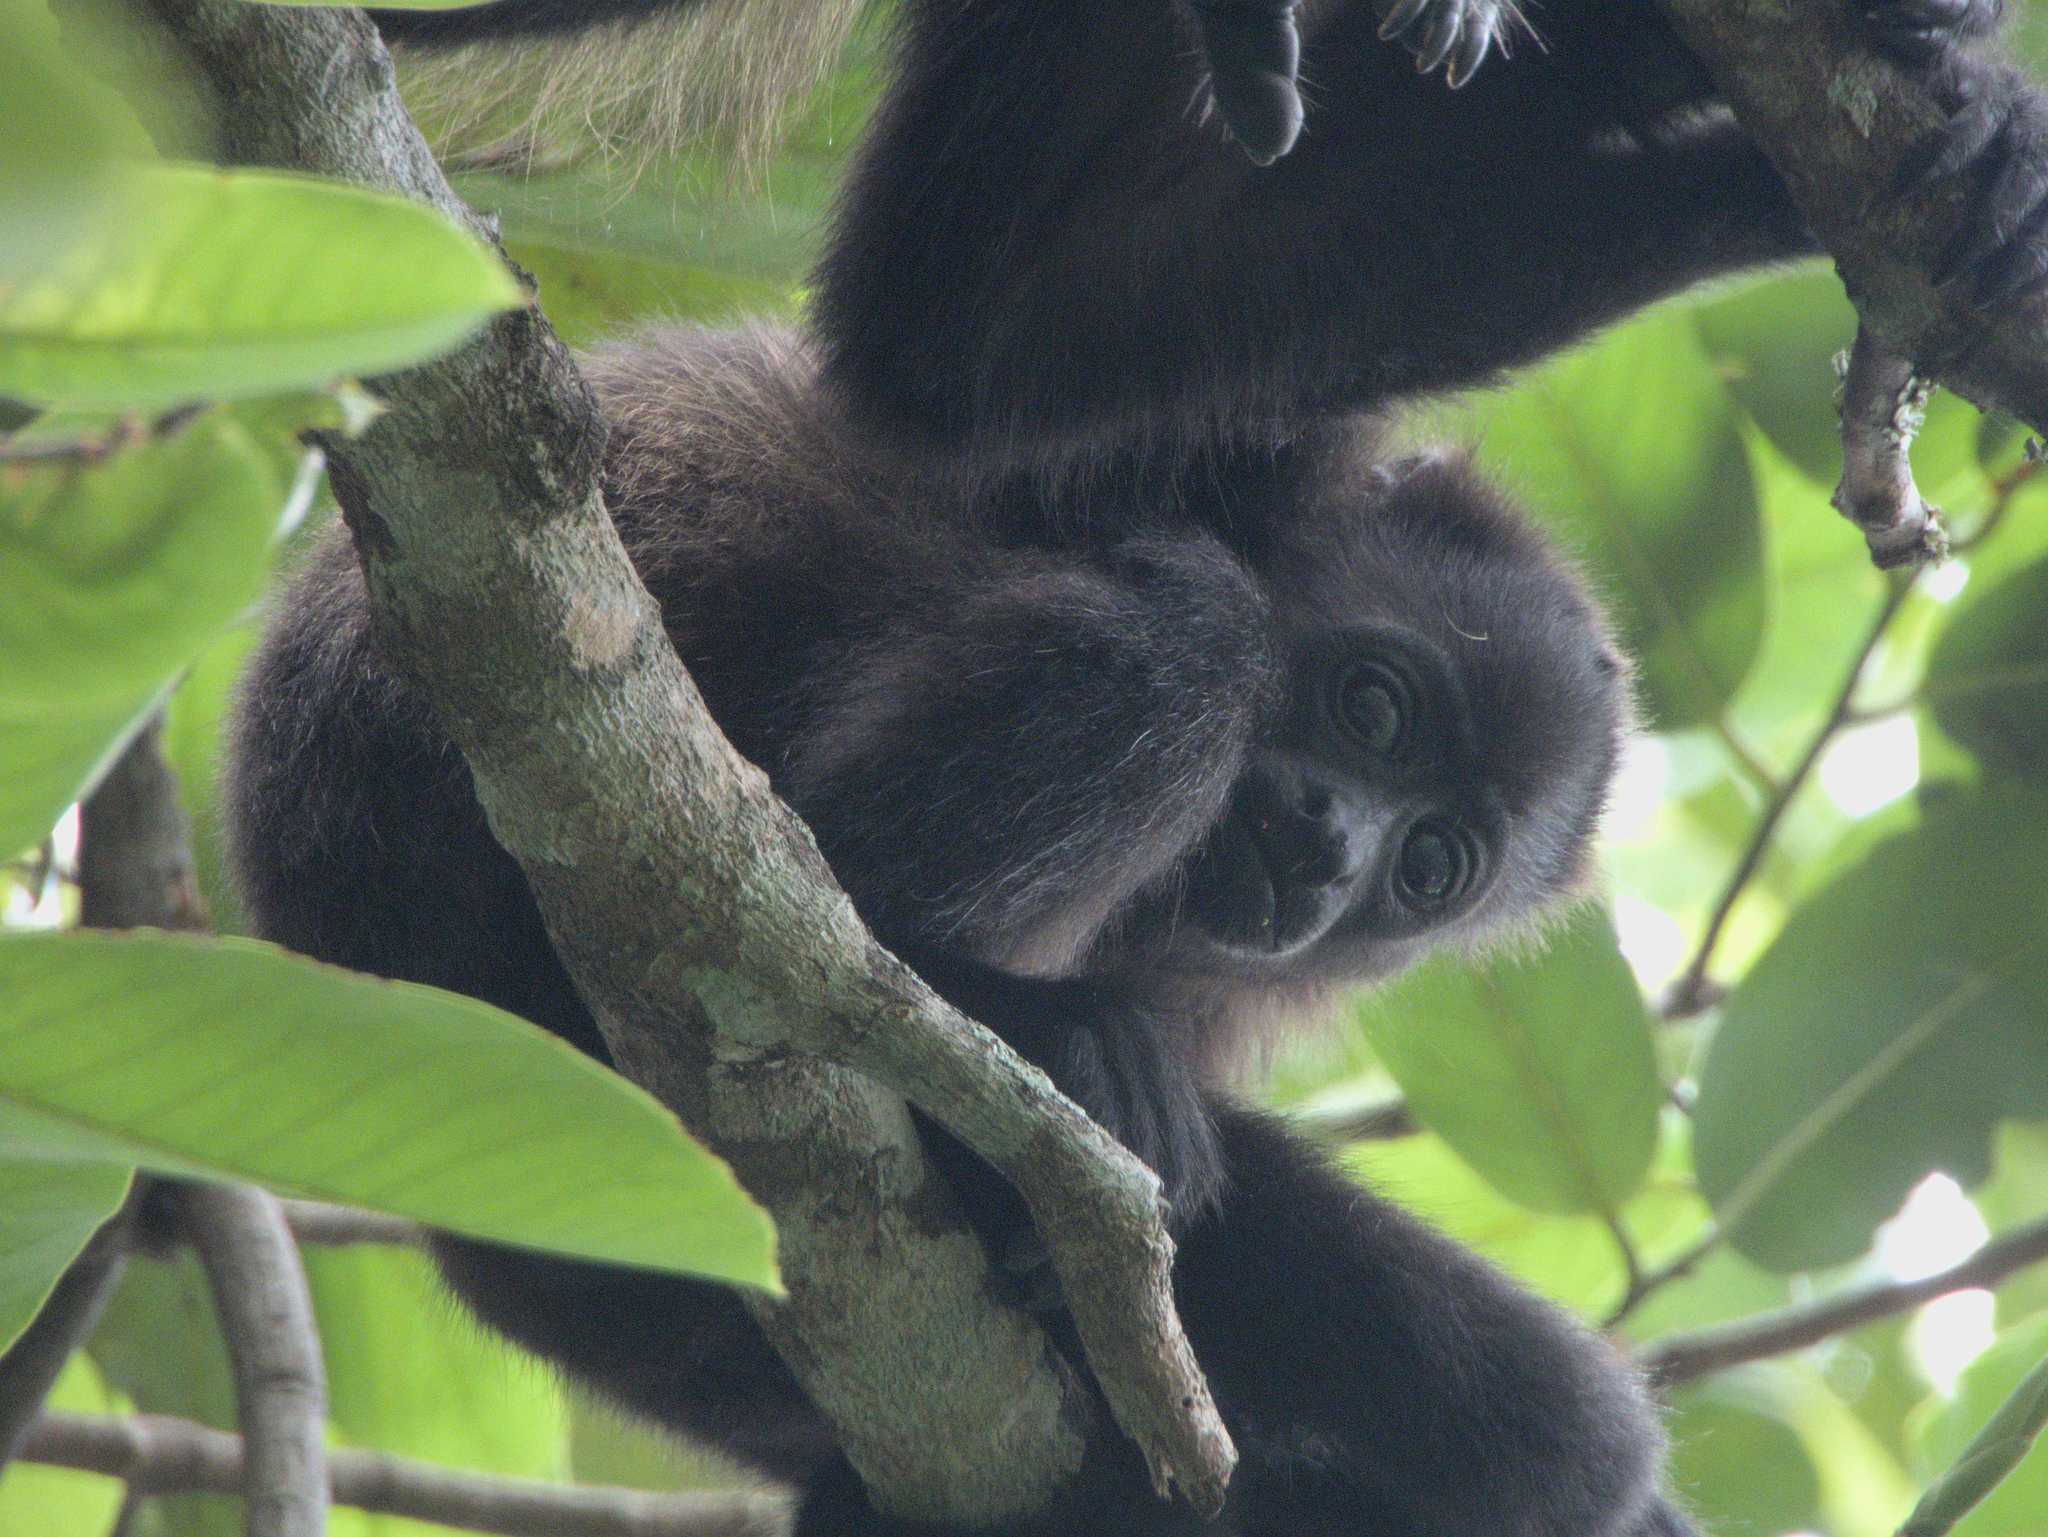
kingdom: Animalia
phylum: Chordata
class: Mammalia
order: Primates
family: Atelidae
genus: Alouatta
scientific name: Alouatta palliata
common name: Mantled howler
